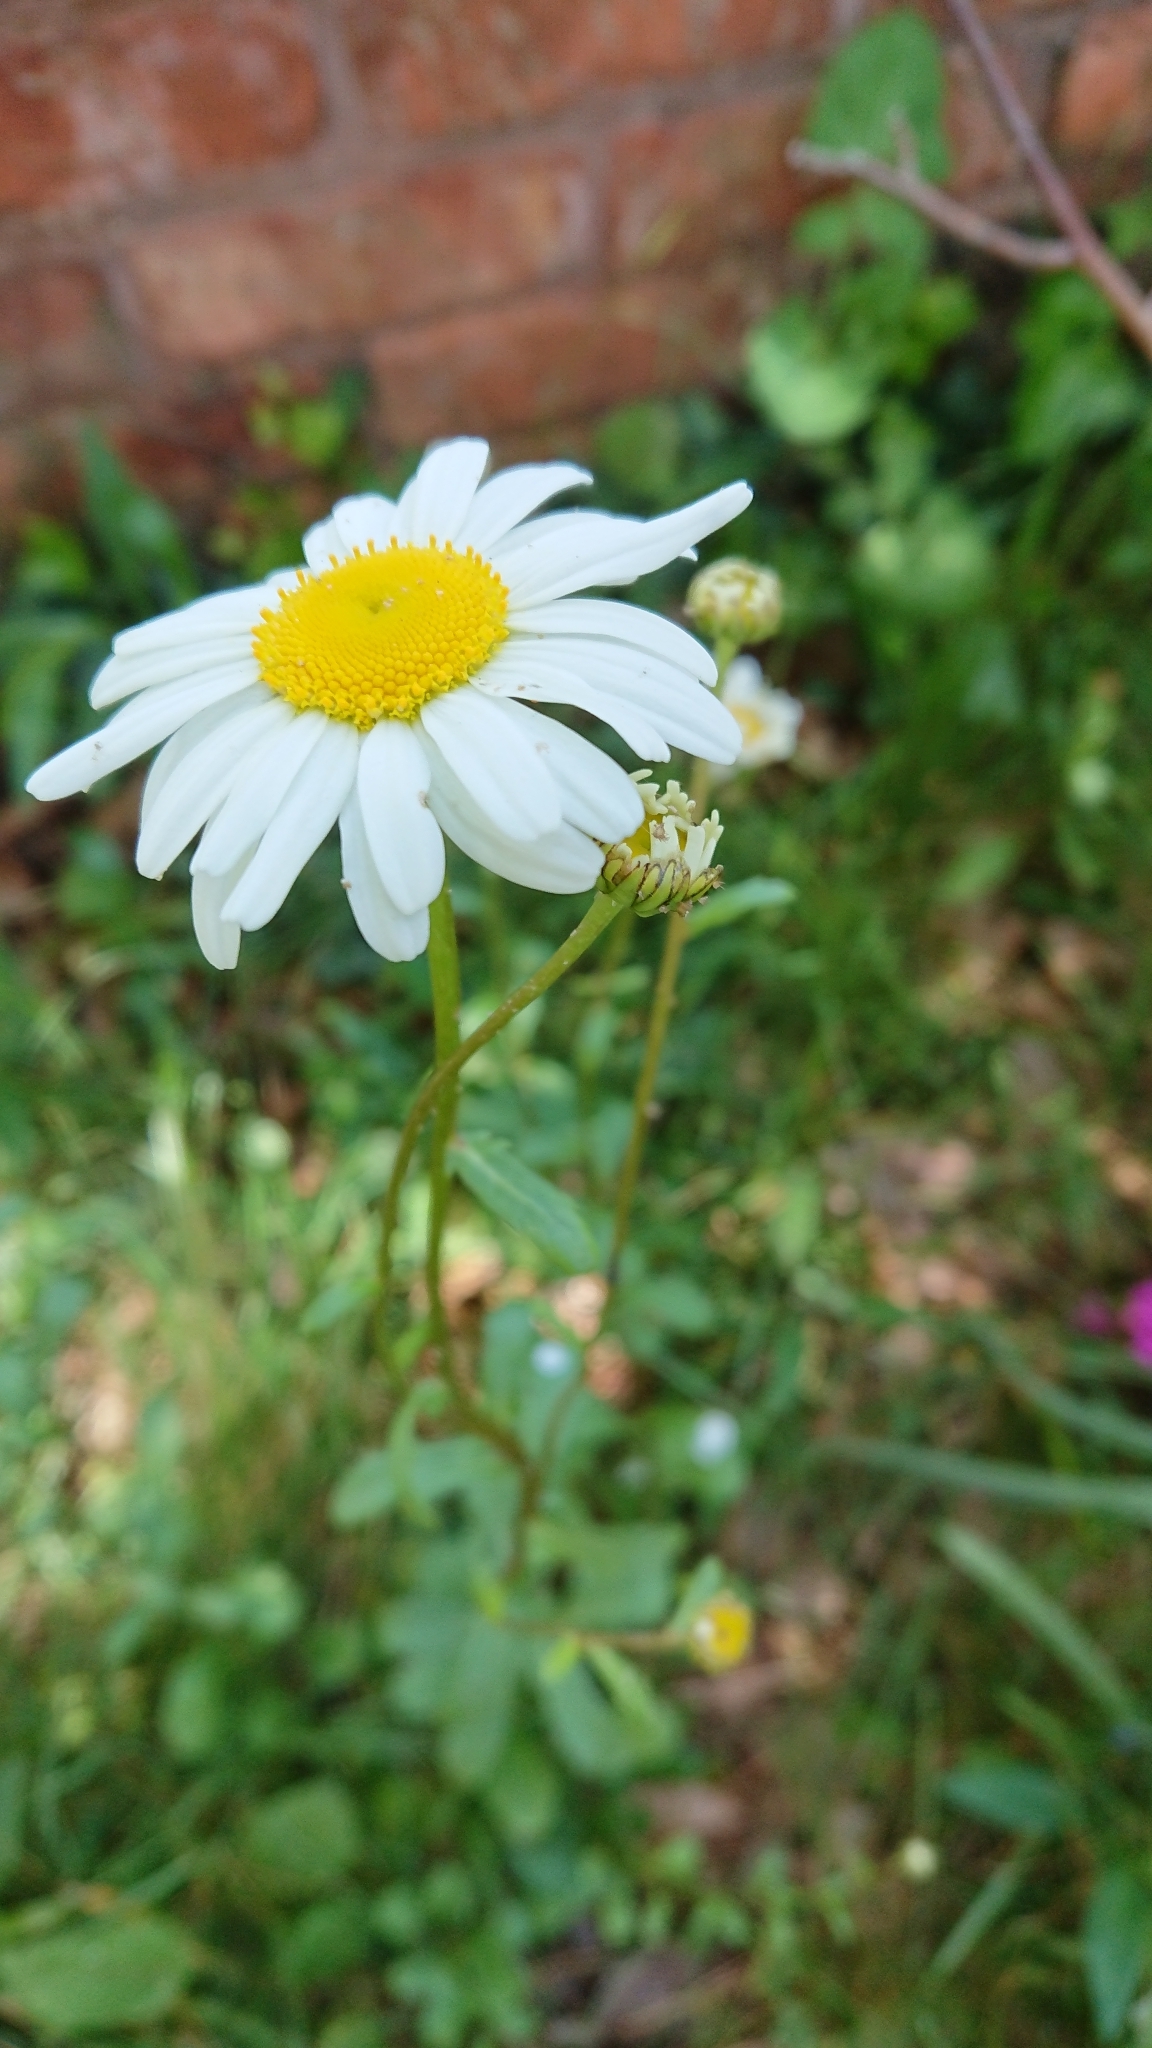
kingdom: Plantae
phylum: Tracheophyta
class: Magnoliopsida
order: Asterales
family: Asteraceae
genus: Leucanthemum
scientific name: Leucanthemum vulgare
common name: Oxeye daisy
